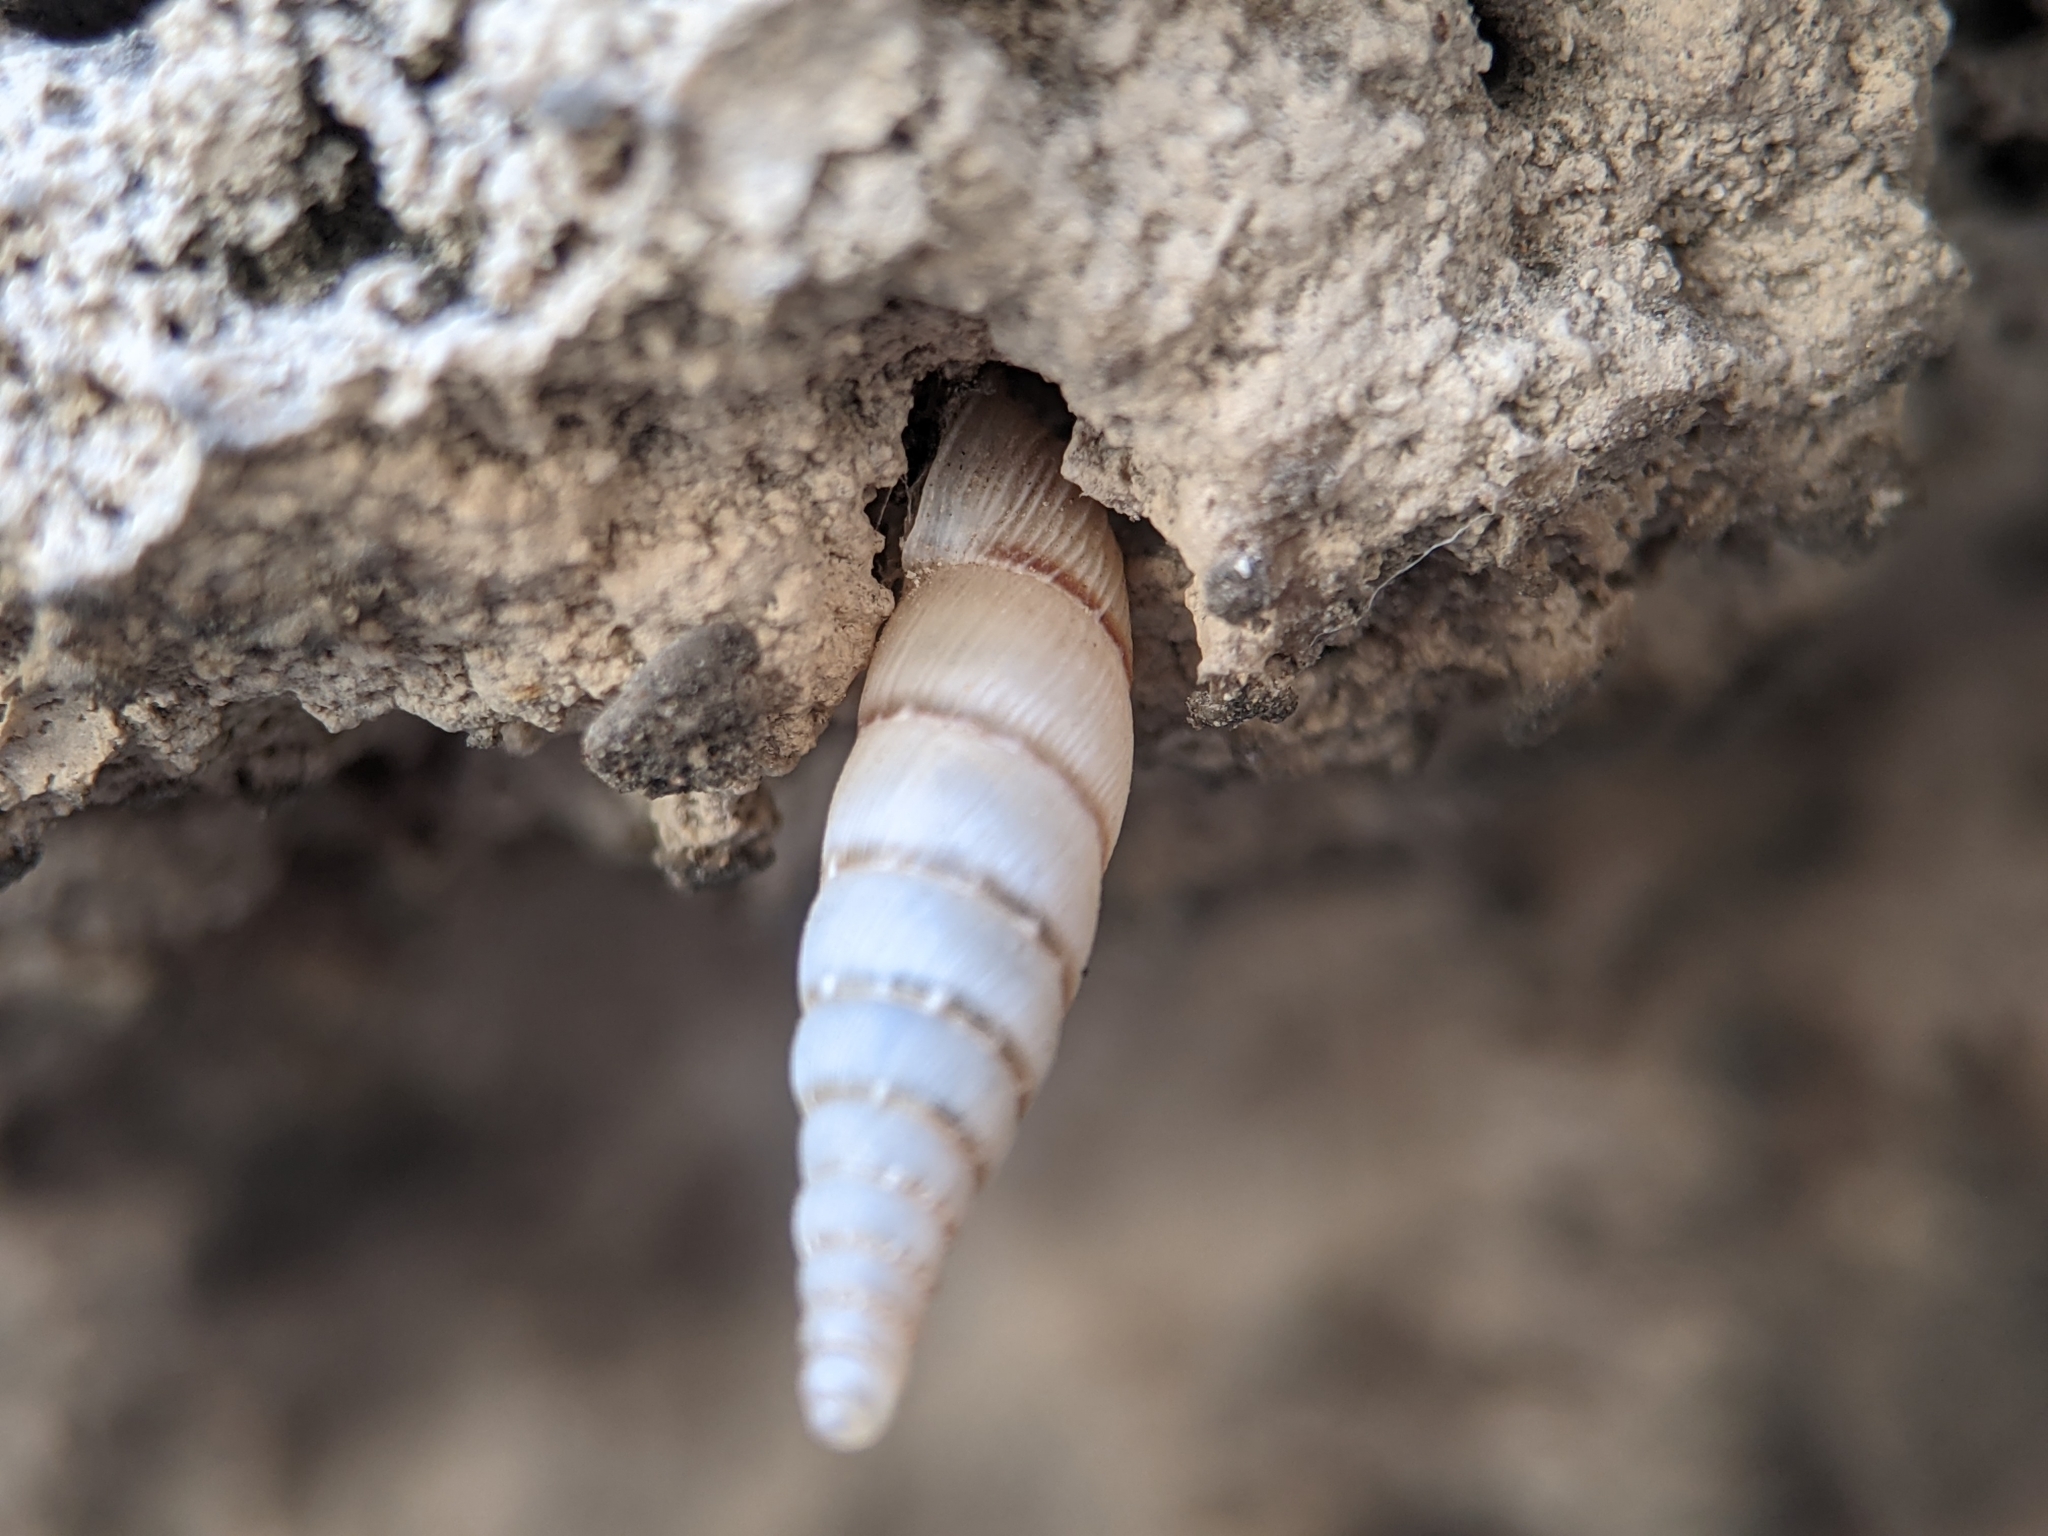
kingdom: Animalia
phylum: Mollusca
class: Gastropoda
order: Stylommatophora
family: Clausiliidae
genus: Papillifera
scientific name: Papillifera papillaris
